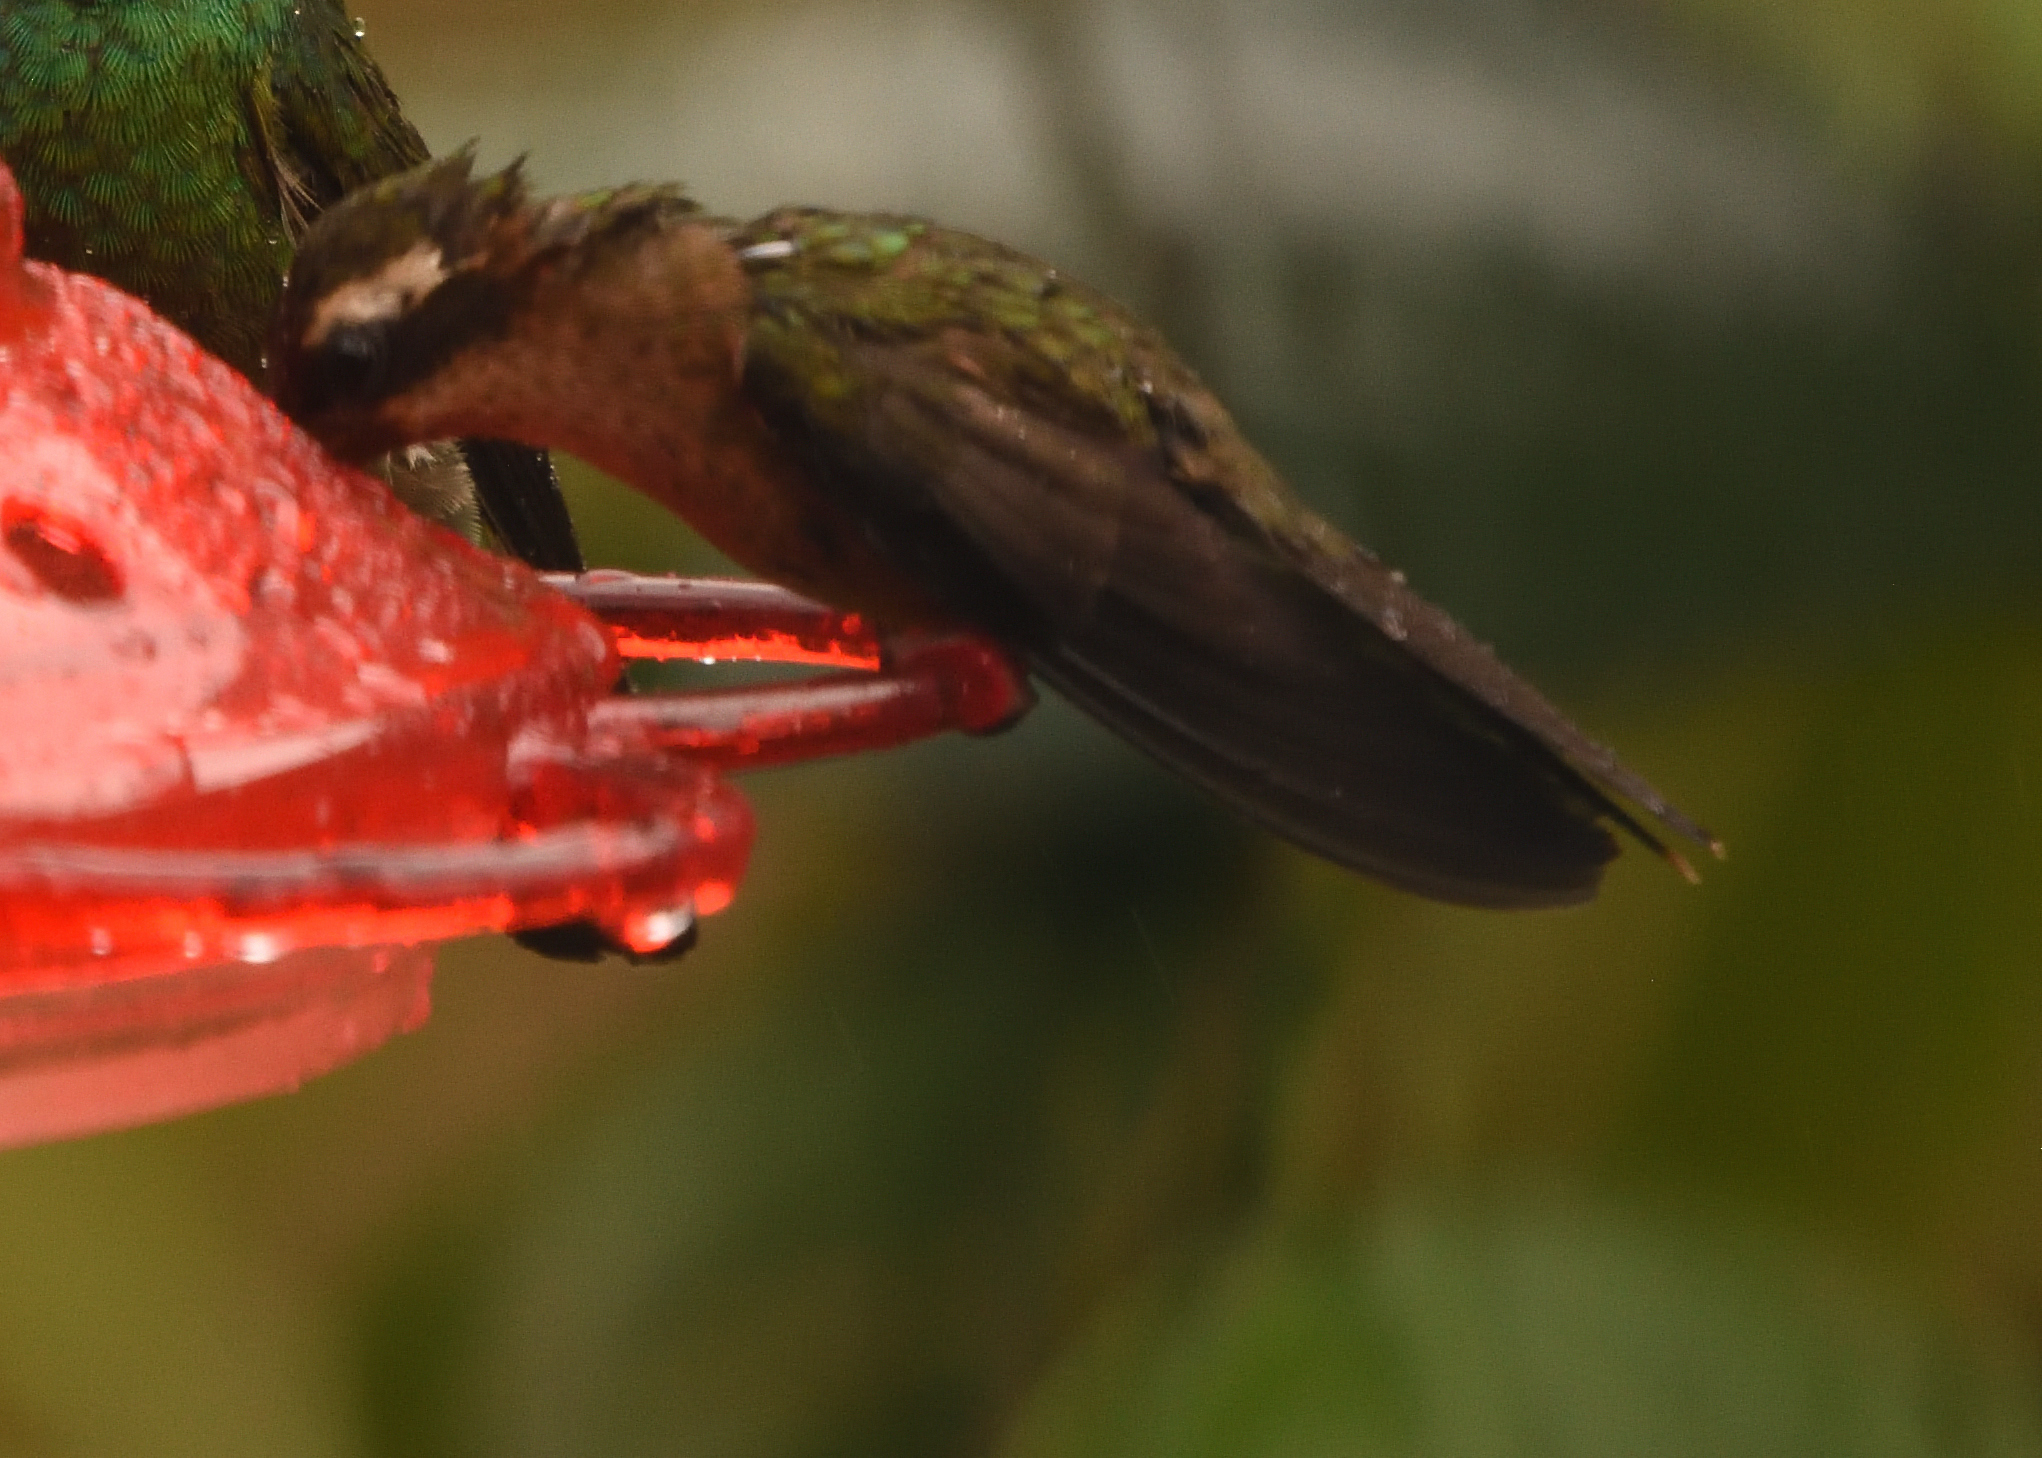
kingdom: Animalia
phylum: Chordata
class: Aves
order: Apodiformes
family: Trochilidae
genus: Adelomyia
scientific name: Adelomyia melanogenys
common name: Speckled hummingbird
